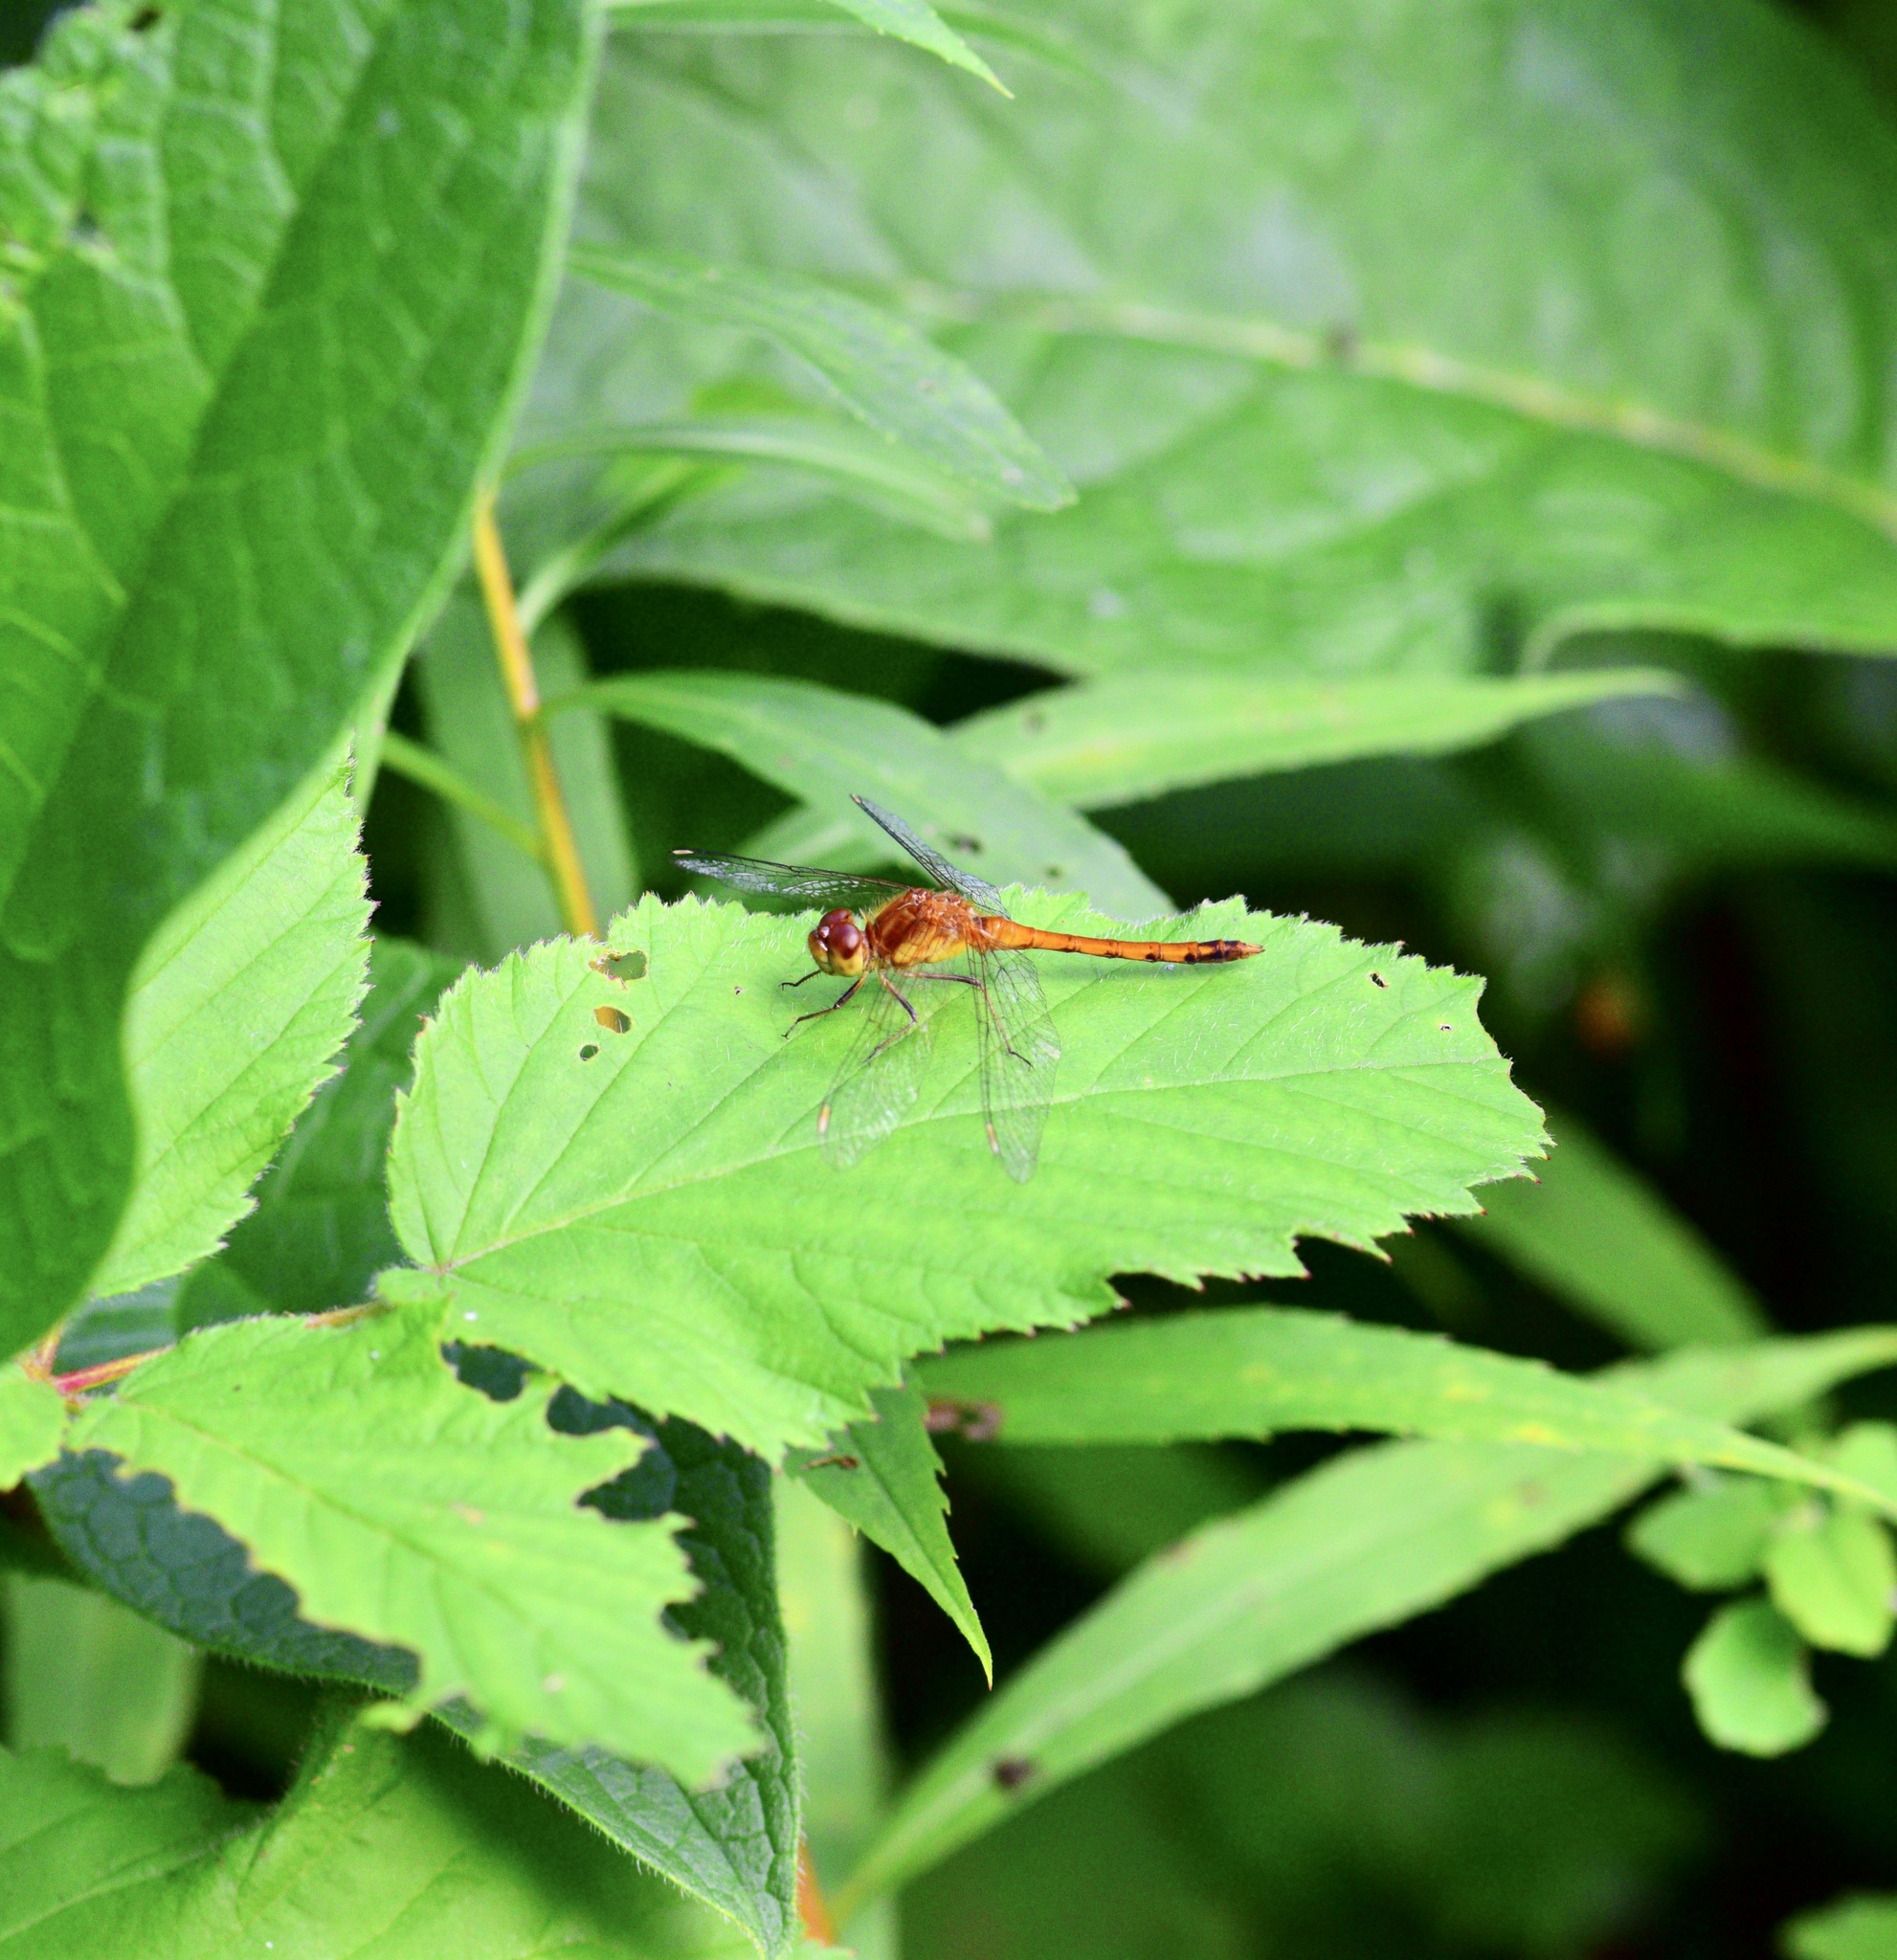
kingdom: Animalia
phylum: Arthropoda
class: Insecta
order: Odonata
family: Libellulidae
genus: Sympetrum
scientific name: Sympetrum vicinum
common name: Autumn meadowhawk
